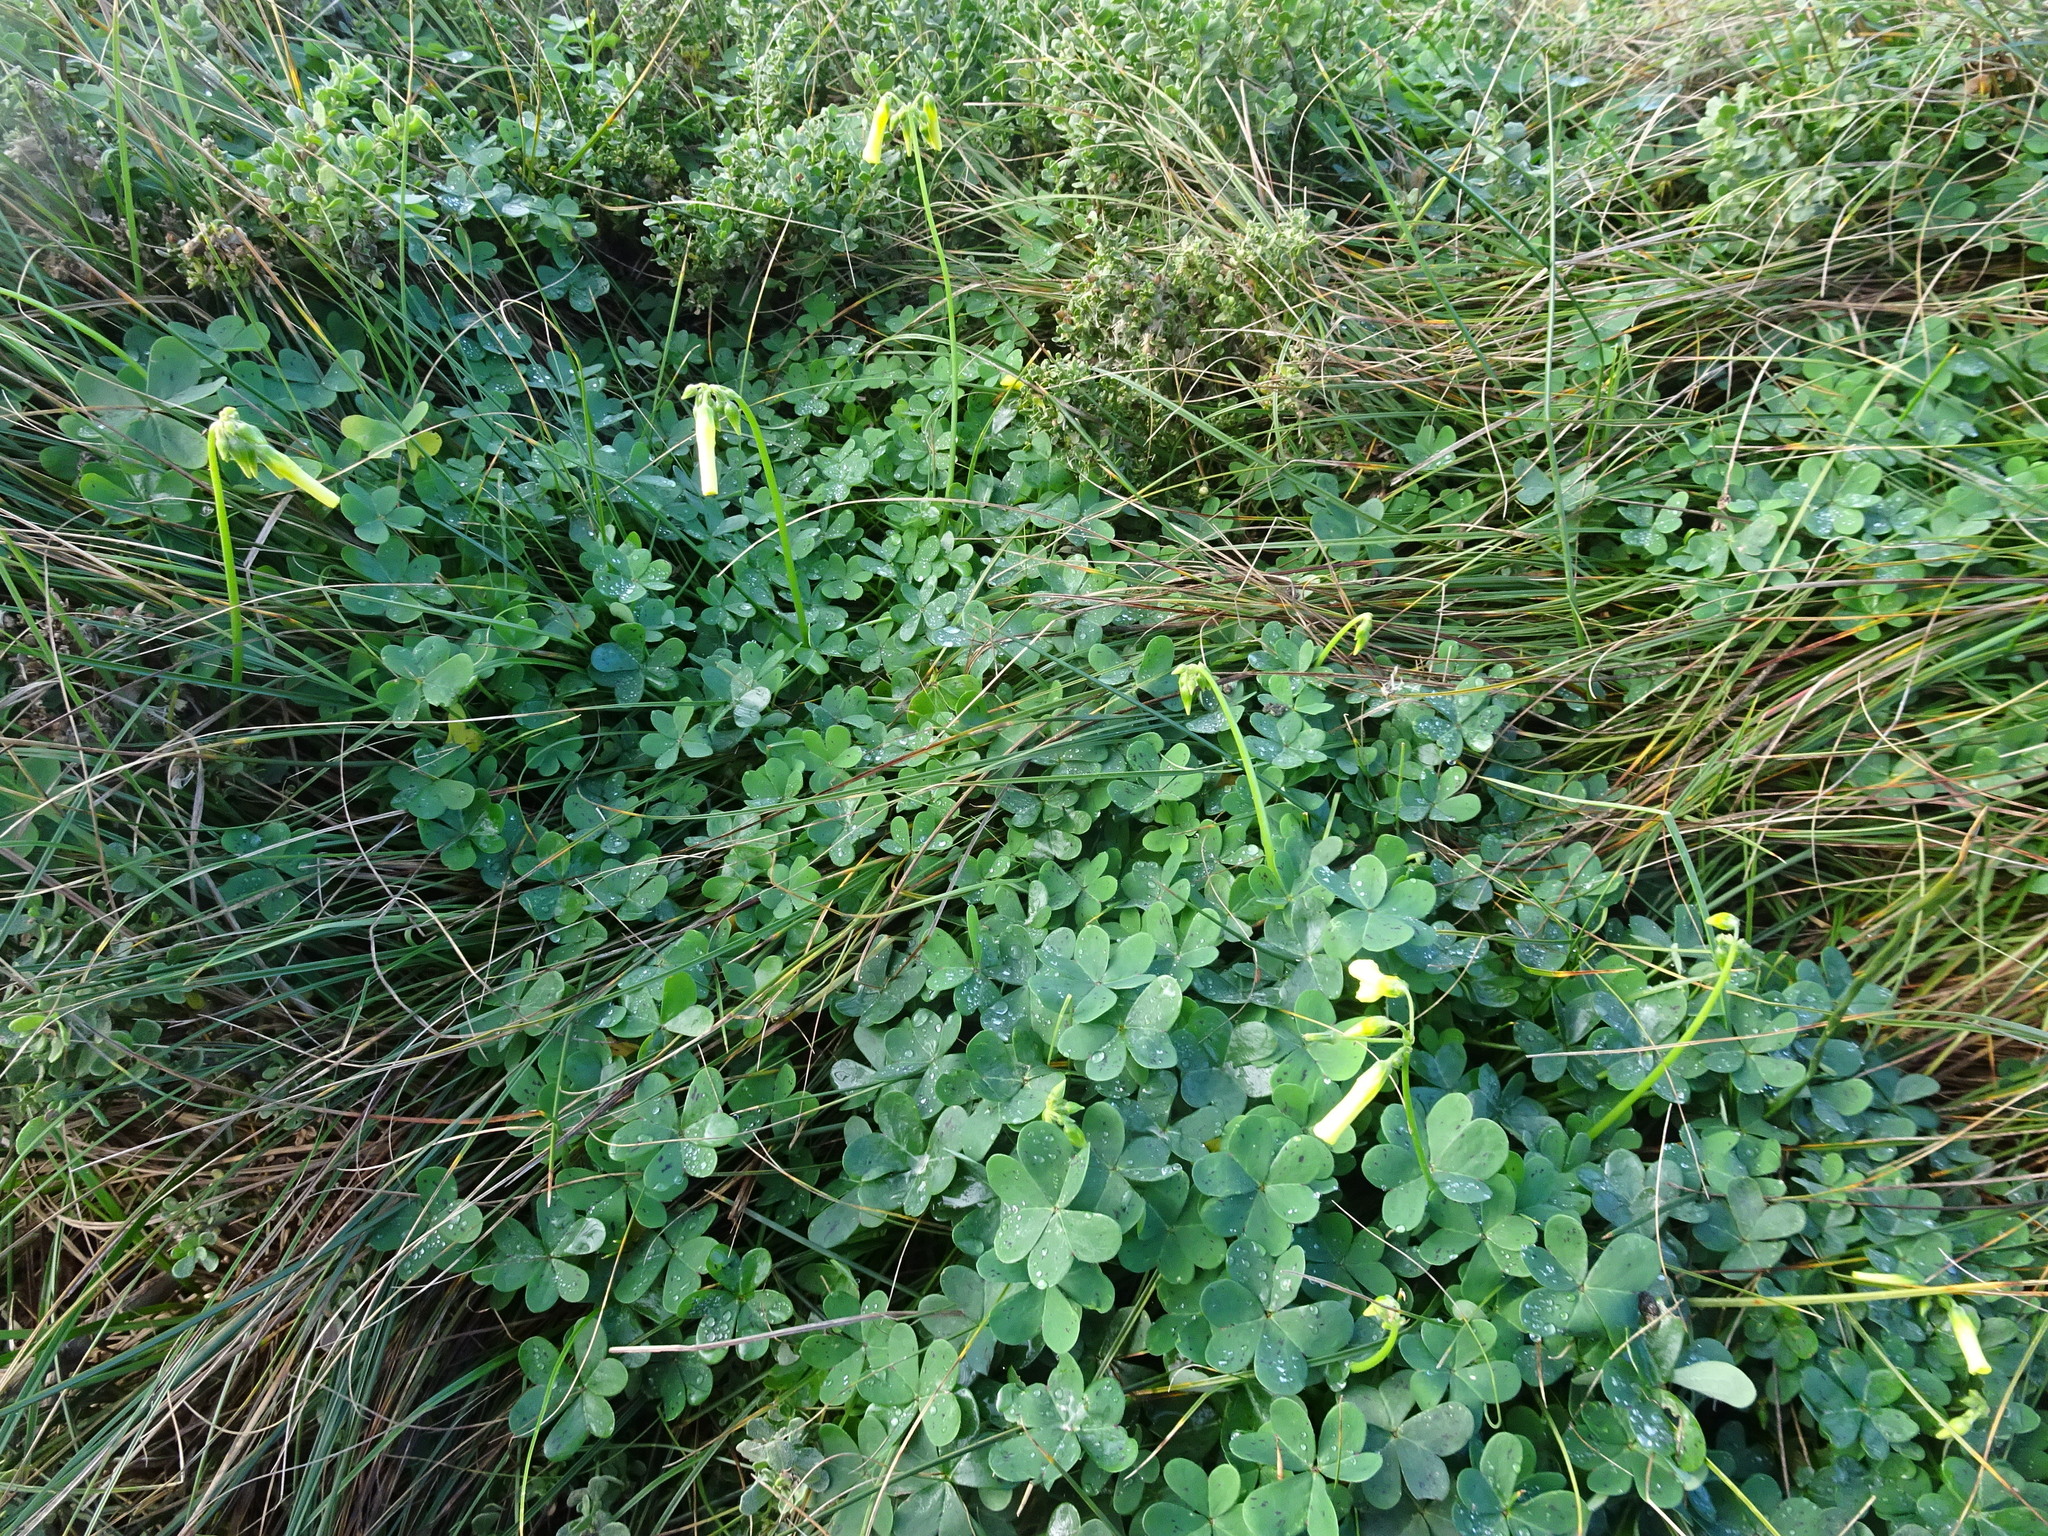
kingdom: Plantae
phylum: Tracheophyta
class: Magnoliopsida
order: Oxalidales
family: Oxalidaceae
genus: Oxalis
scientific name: Oxalis pes-caprae
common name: Bermuda-buttercup
